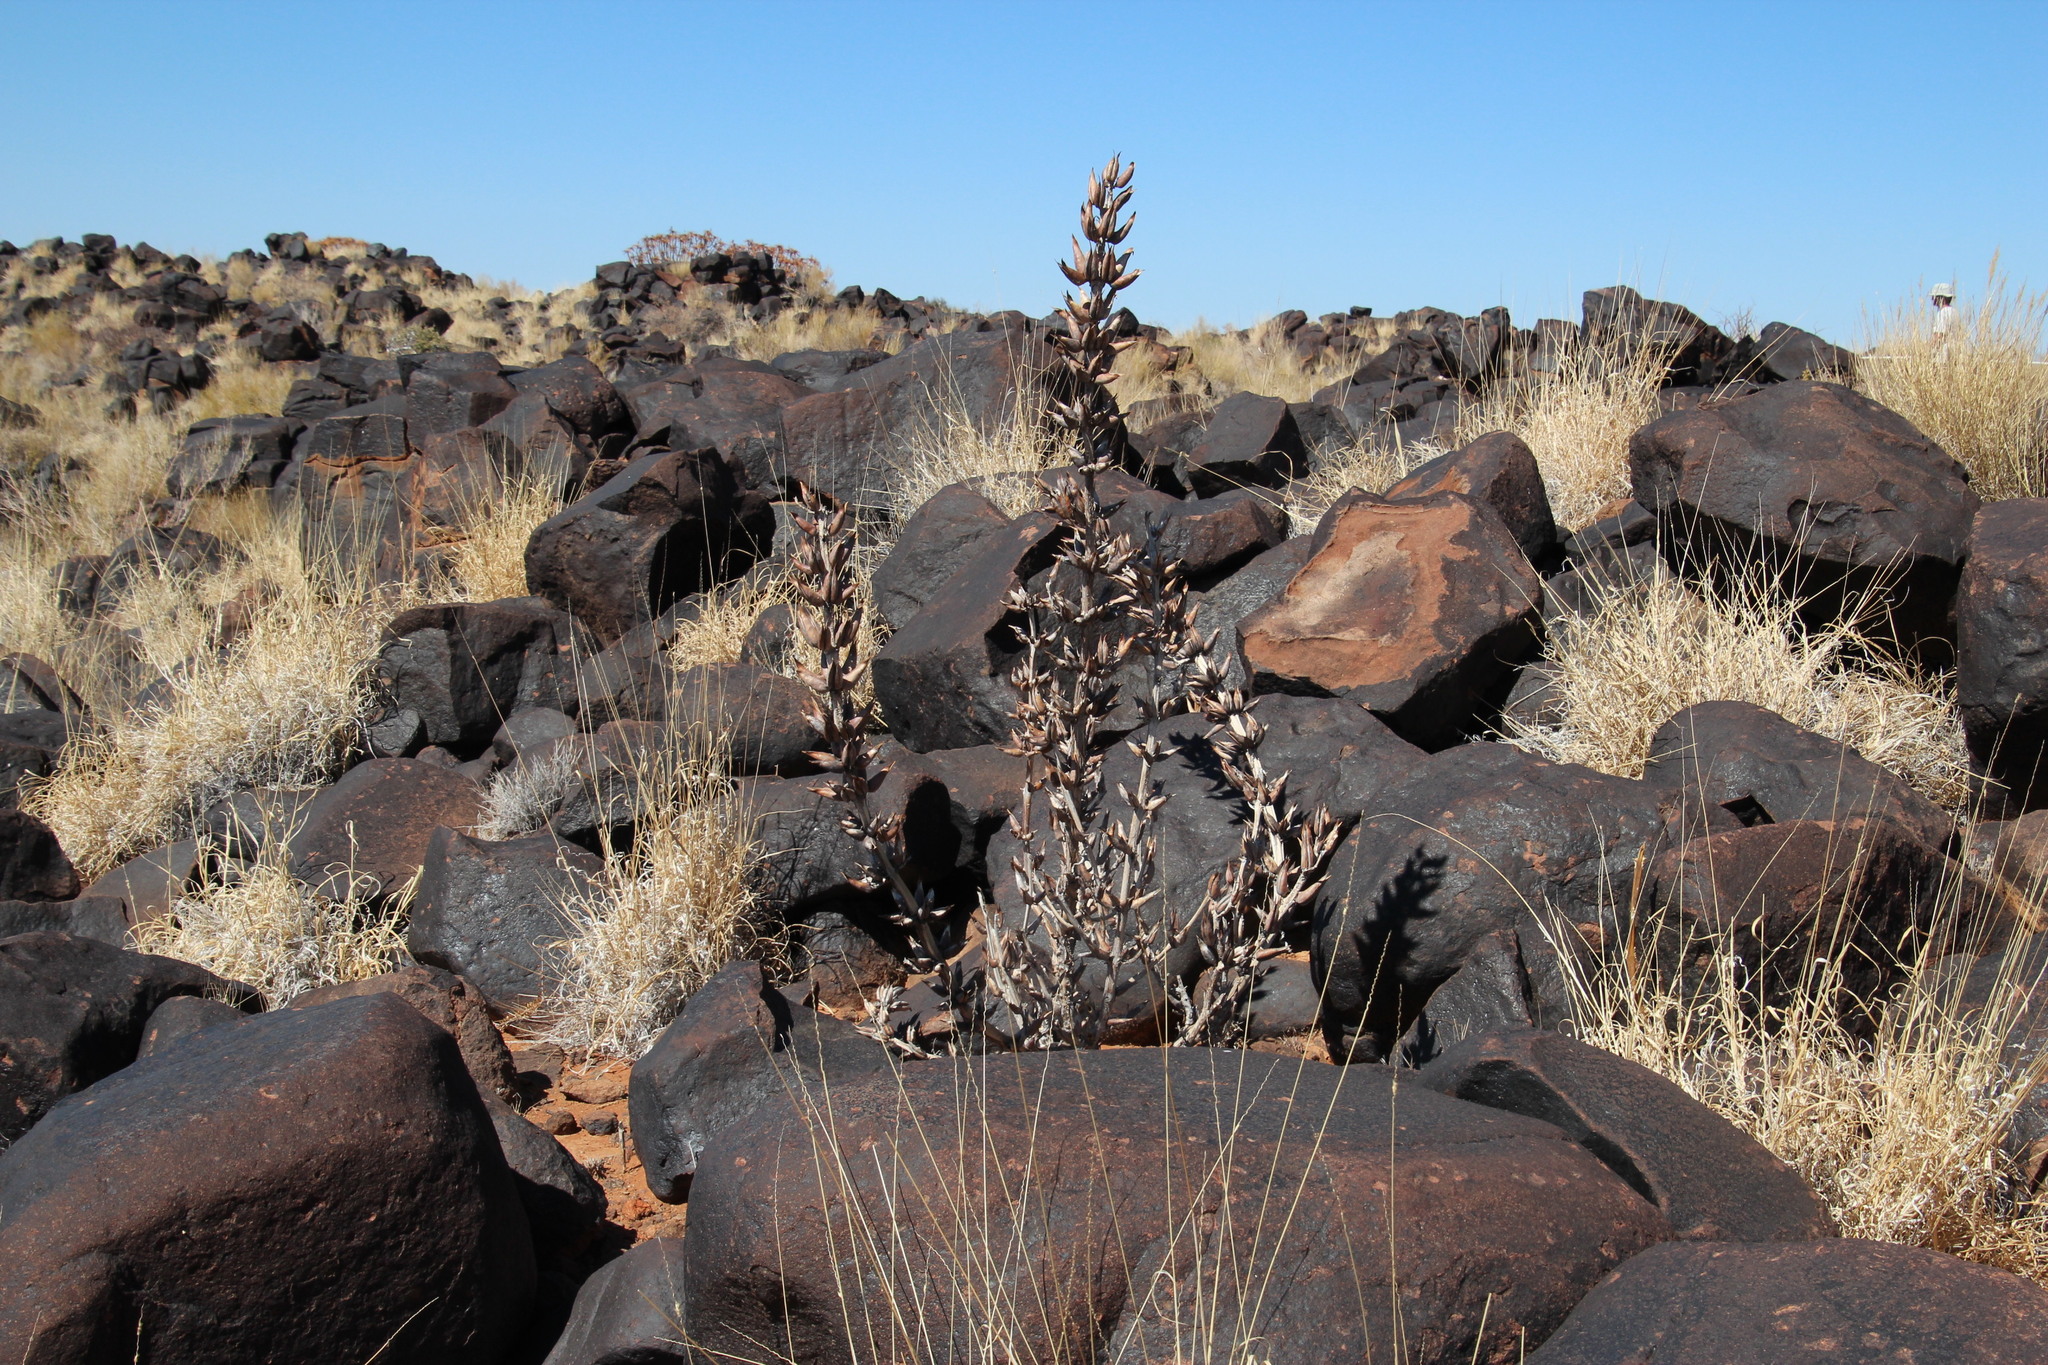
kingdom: Plantae
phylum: Tracheophyta
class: Magnoliopsida
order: Lamiales
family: Pedaliaceae
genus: Rogeria
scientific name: Rogeria longiflora
